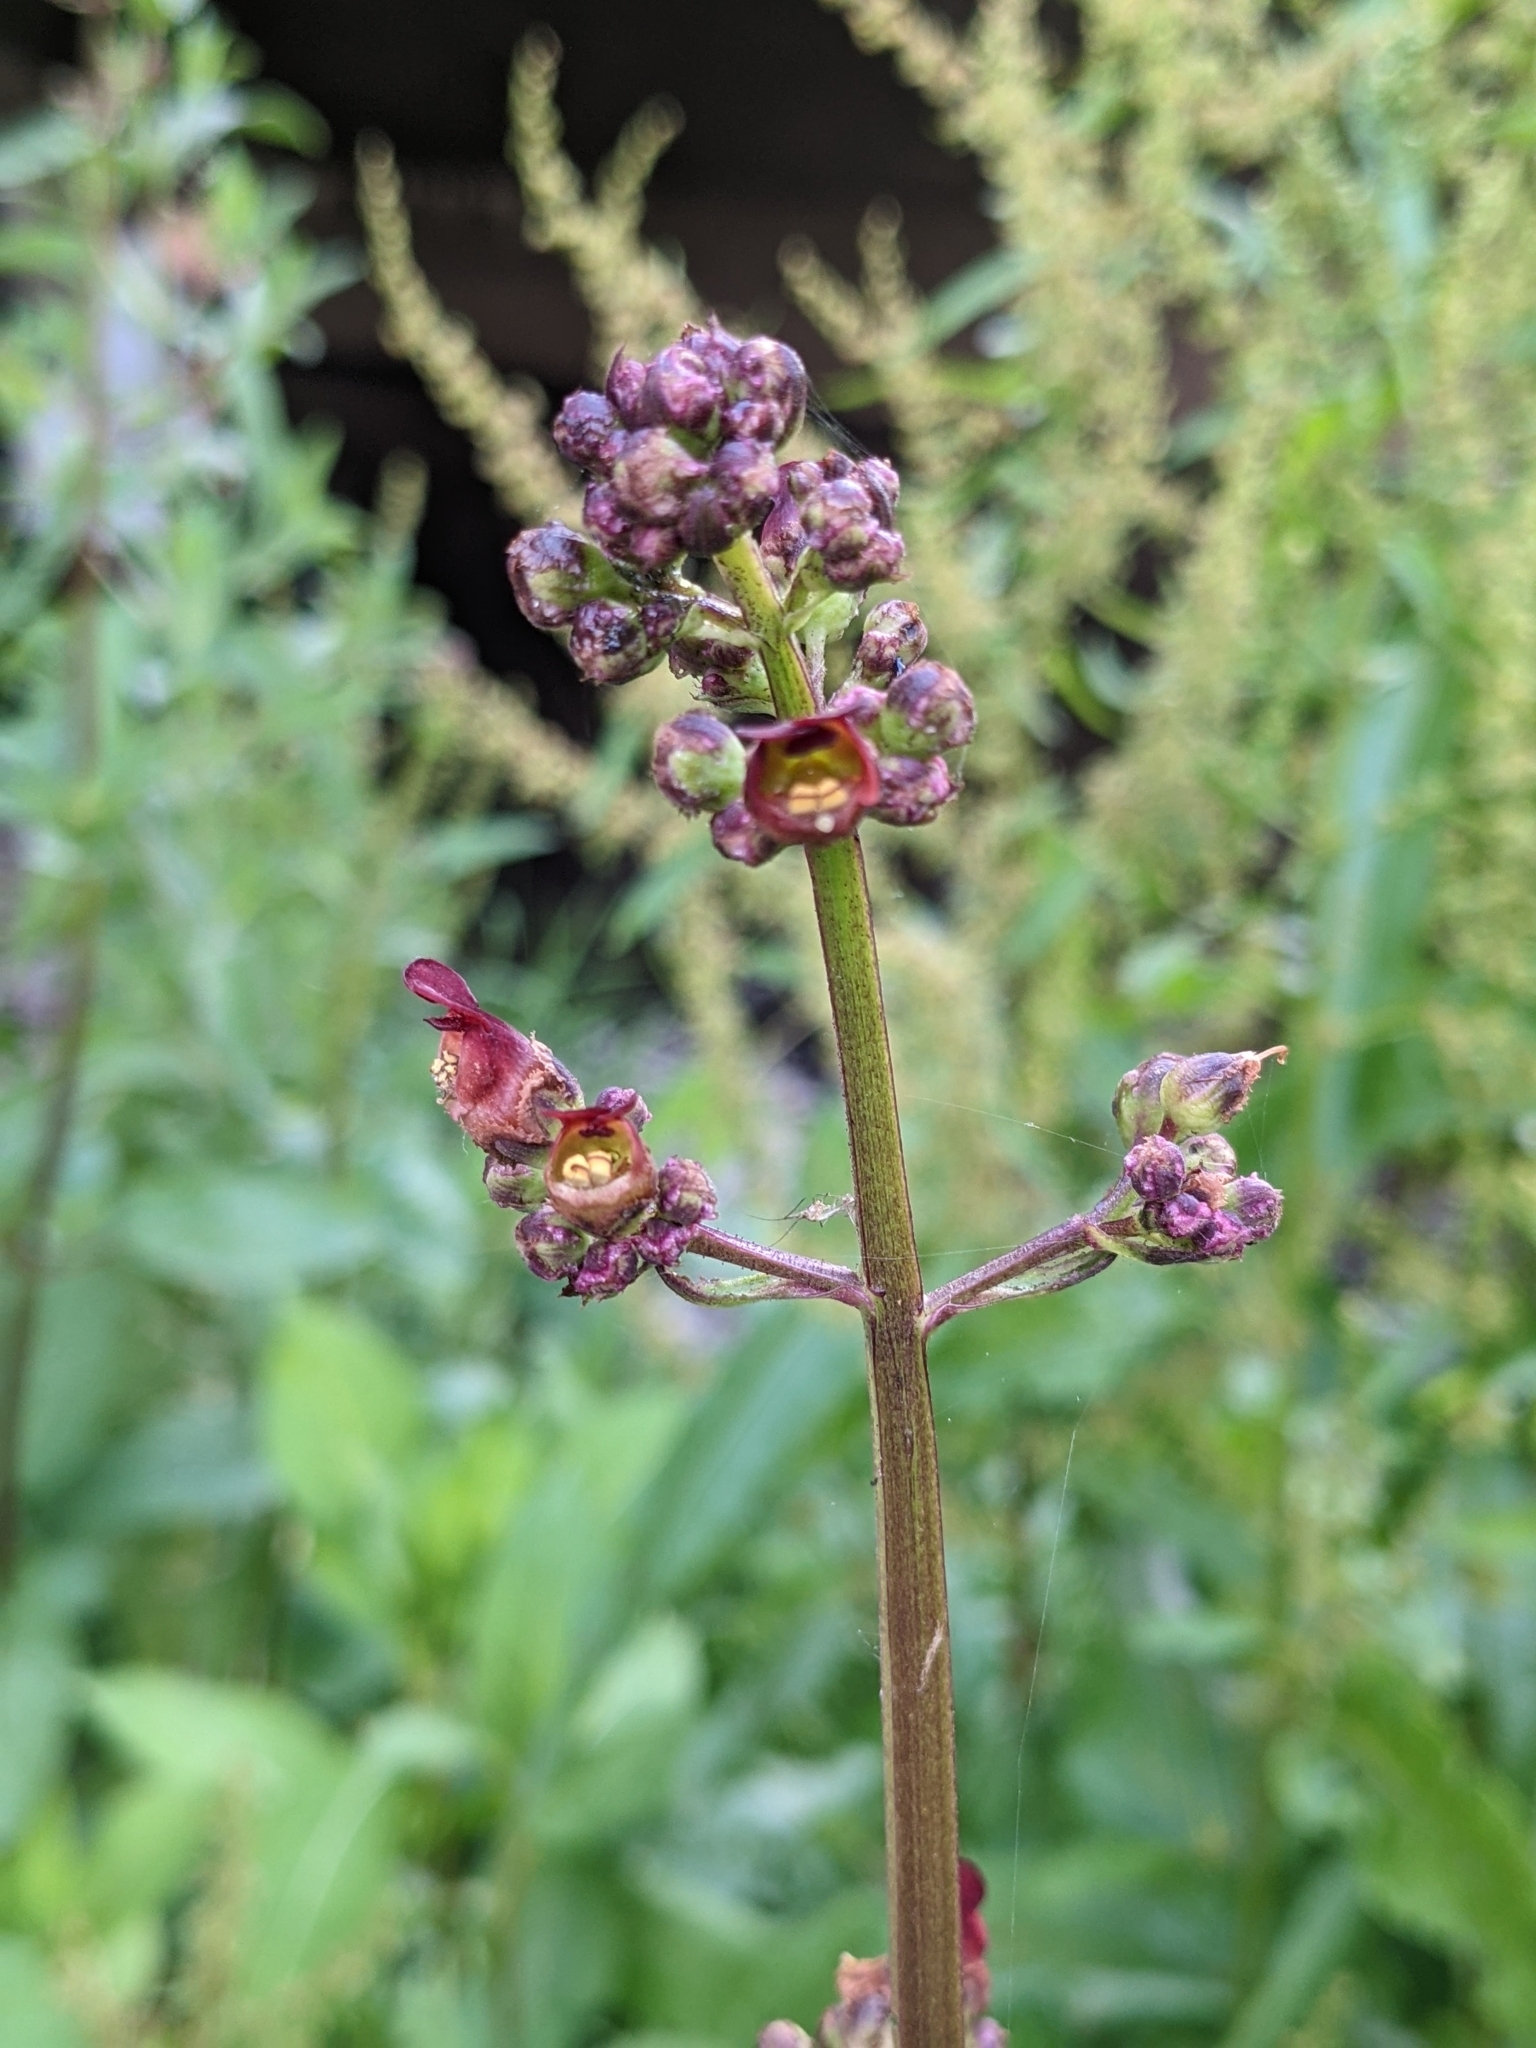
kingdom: Plantae
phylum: Tracheophyta
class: Magnoliopsida
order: Lamiales
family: Scrophulariaceae
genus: Scrophularia
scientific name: Scrophularia auriculata
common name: Water betony
